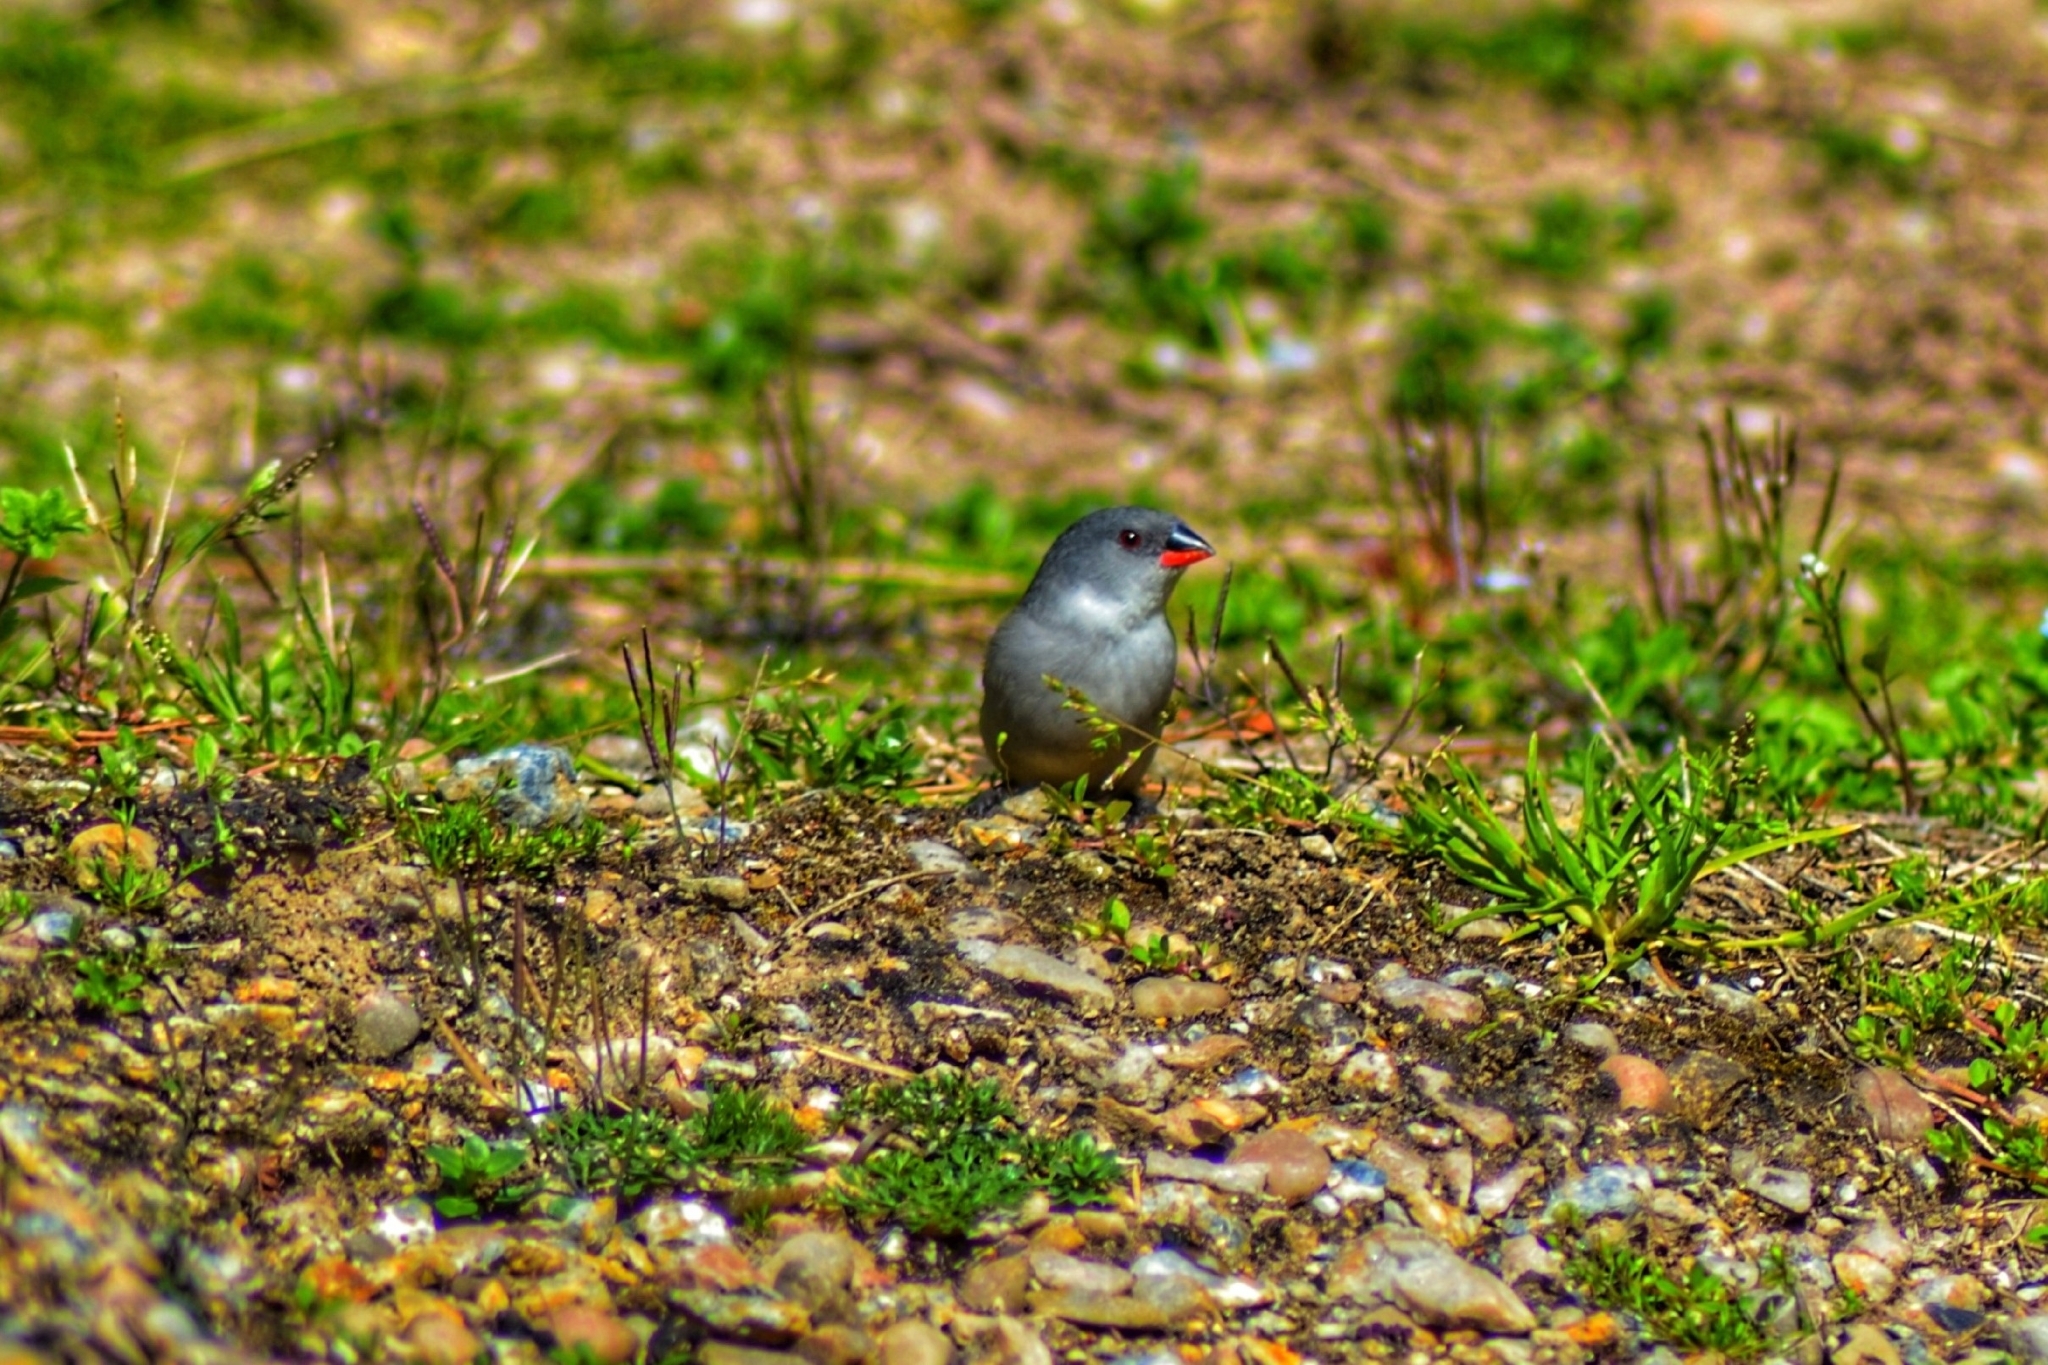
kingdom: Animalia
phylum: Chordata
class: Aves
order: Passeriformes
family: Estrildidae
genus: Coccopygia
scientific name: Coccopygia melanotis
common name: Swee waxbill
